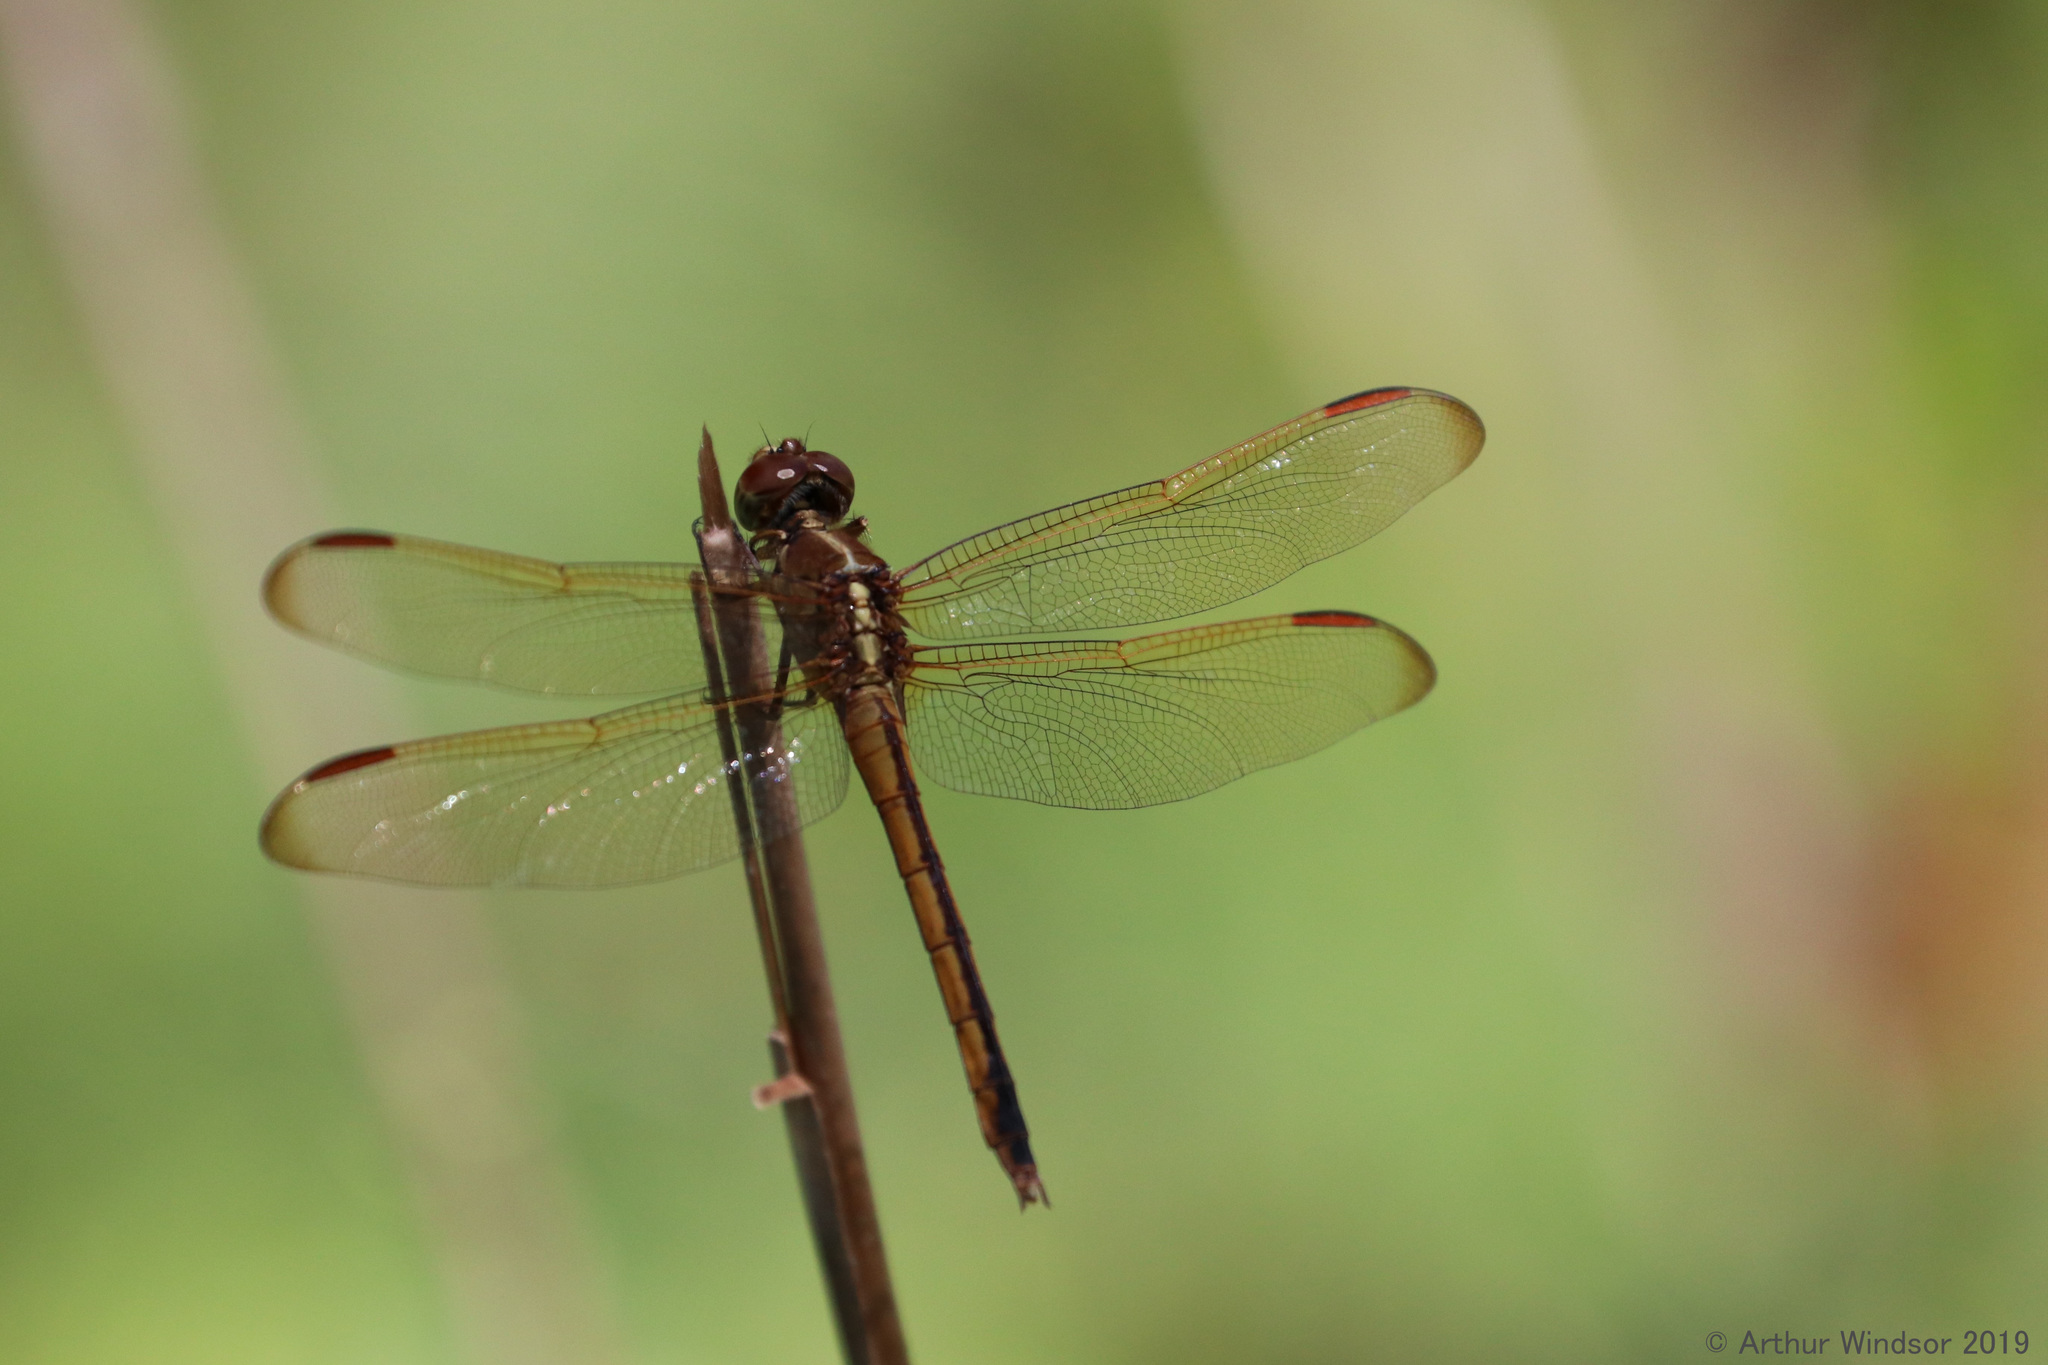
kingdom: Animalia
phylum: Arthropoda
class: Insecta
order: Odonata
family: Libellulidae
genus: Libellula
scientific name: Libellula needhami
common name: Needham's skimmer
